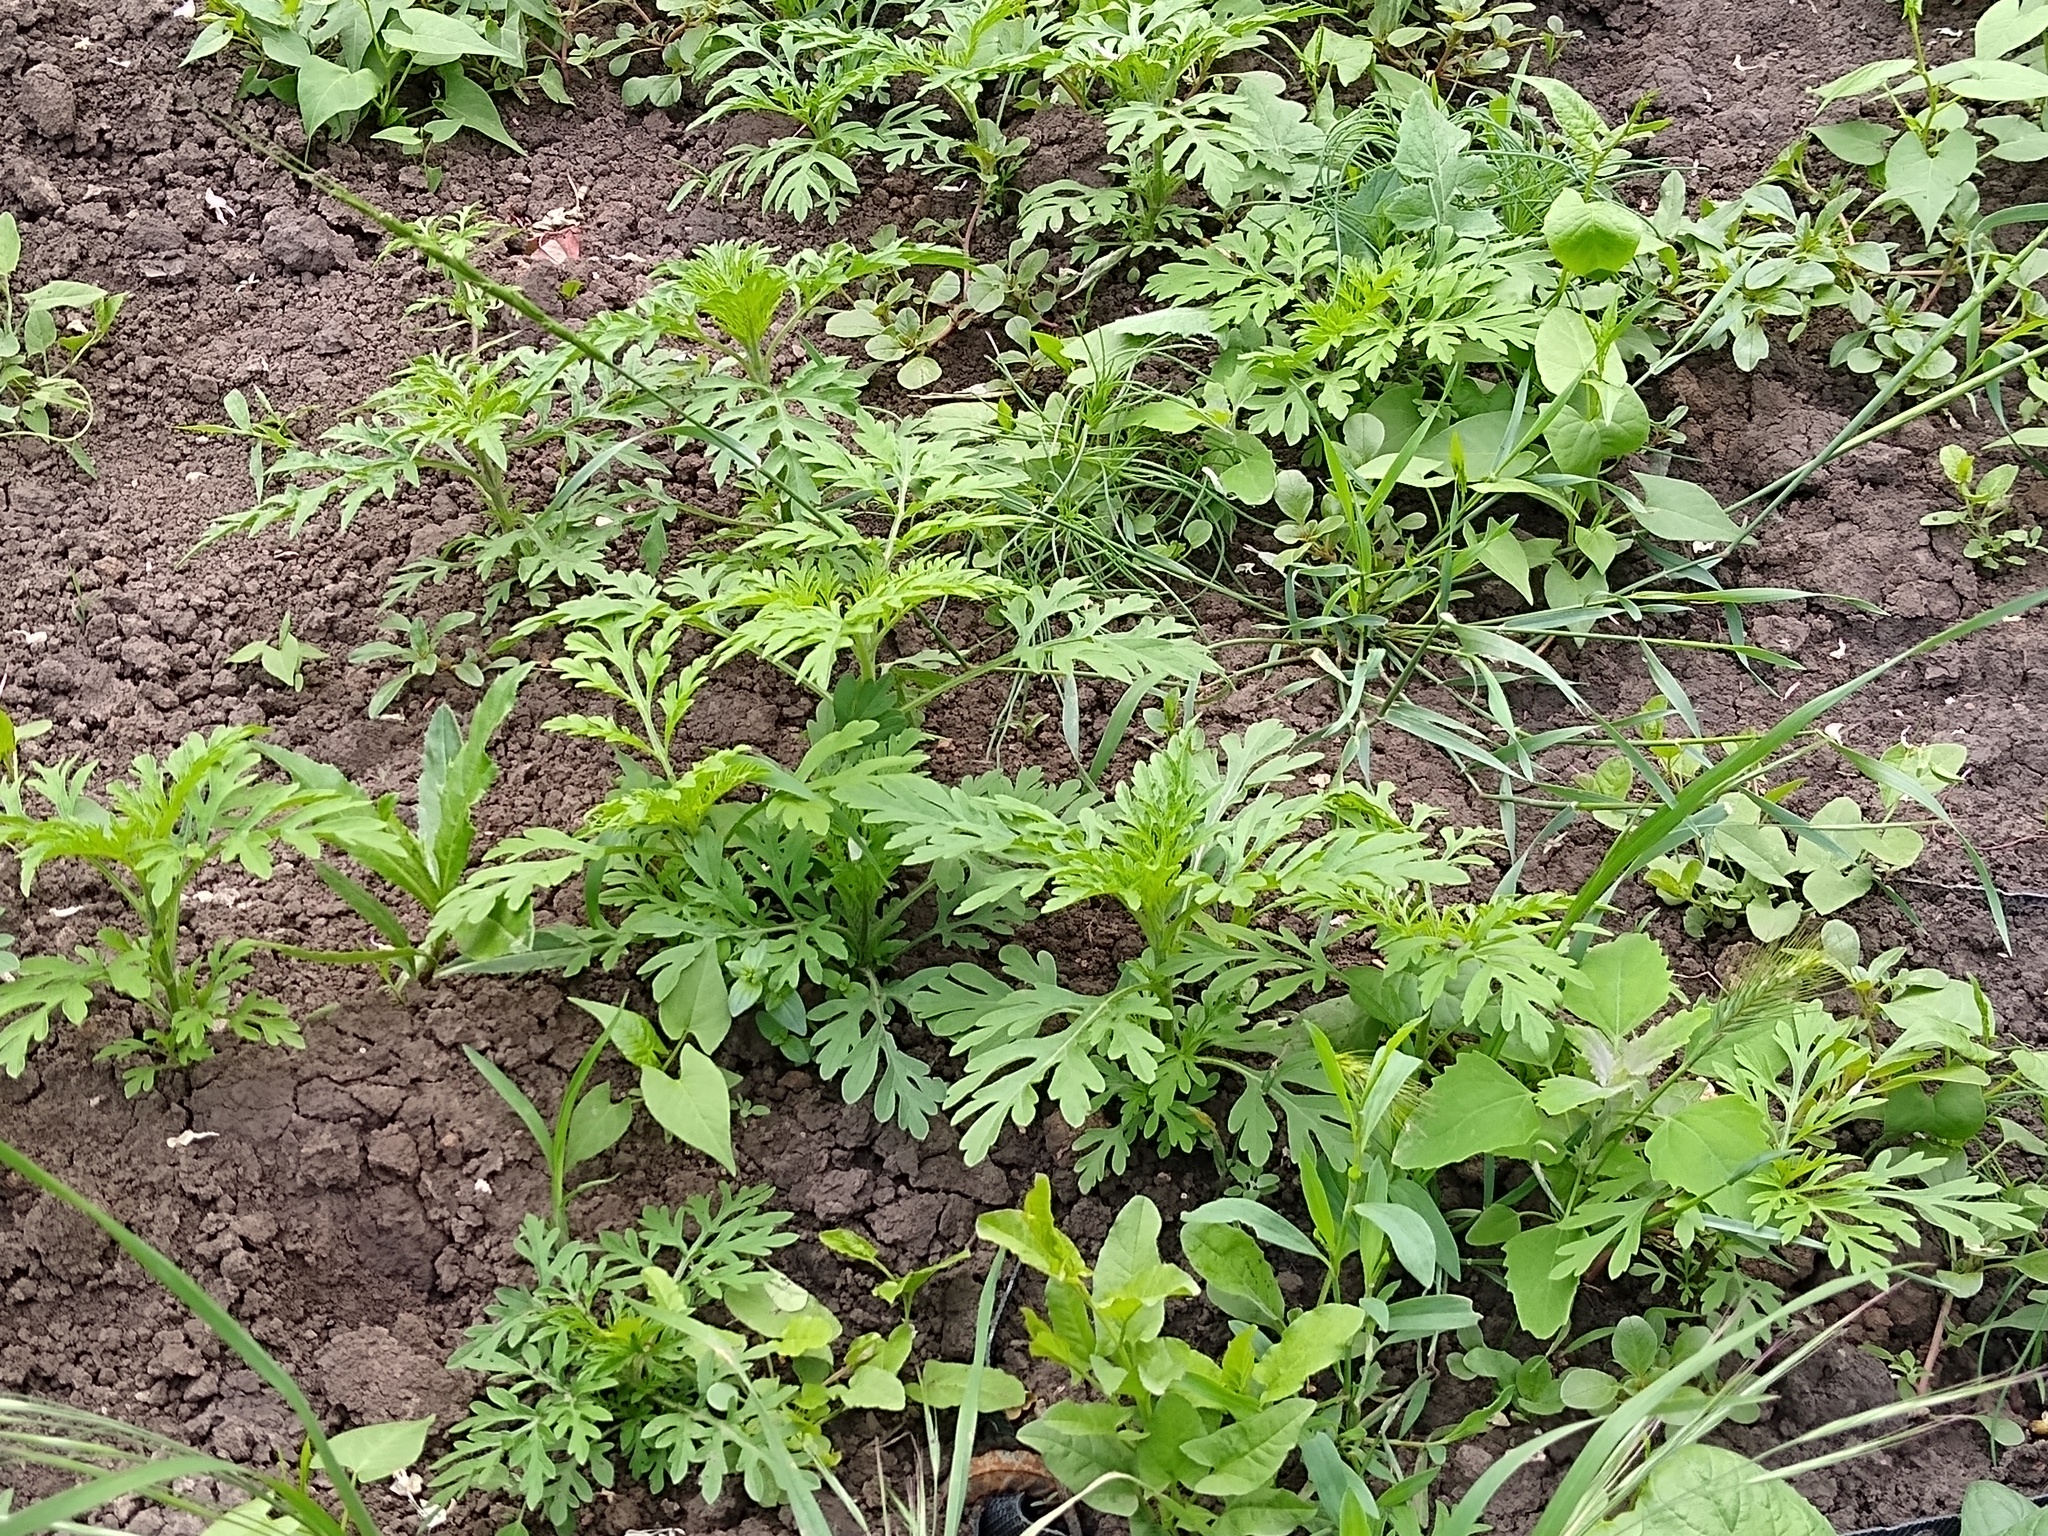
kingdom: Plantae
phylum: Tracheophyta
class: Magnoliopsida
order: Asterales
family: Asteraceae
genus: Ambrosia
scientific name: Ambrosia artemisiifolia
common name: Annual ragweed
